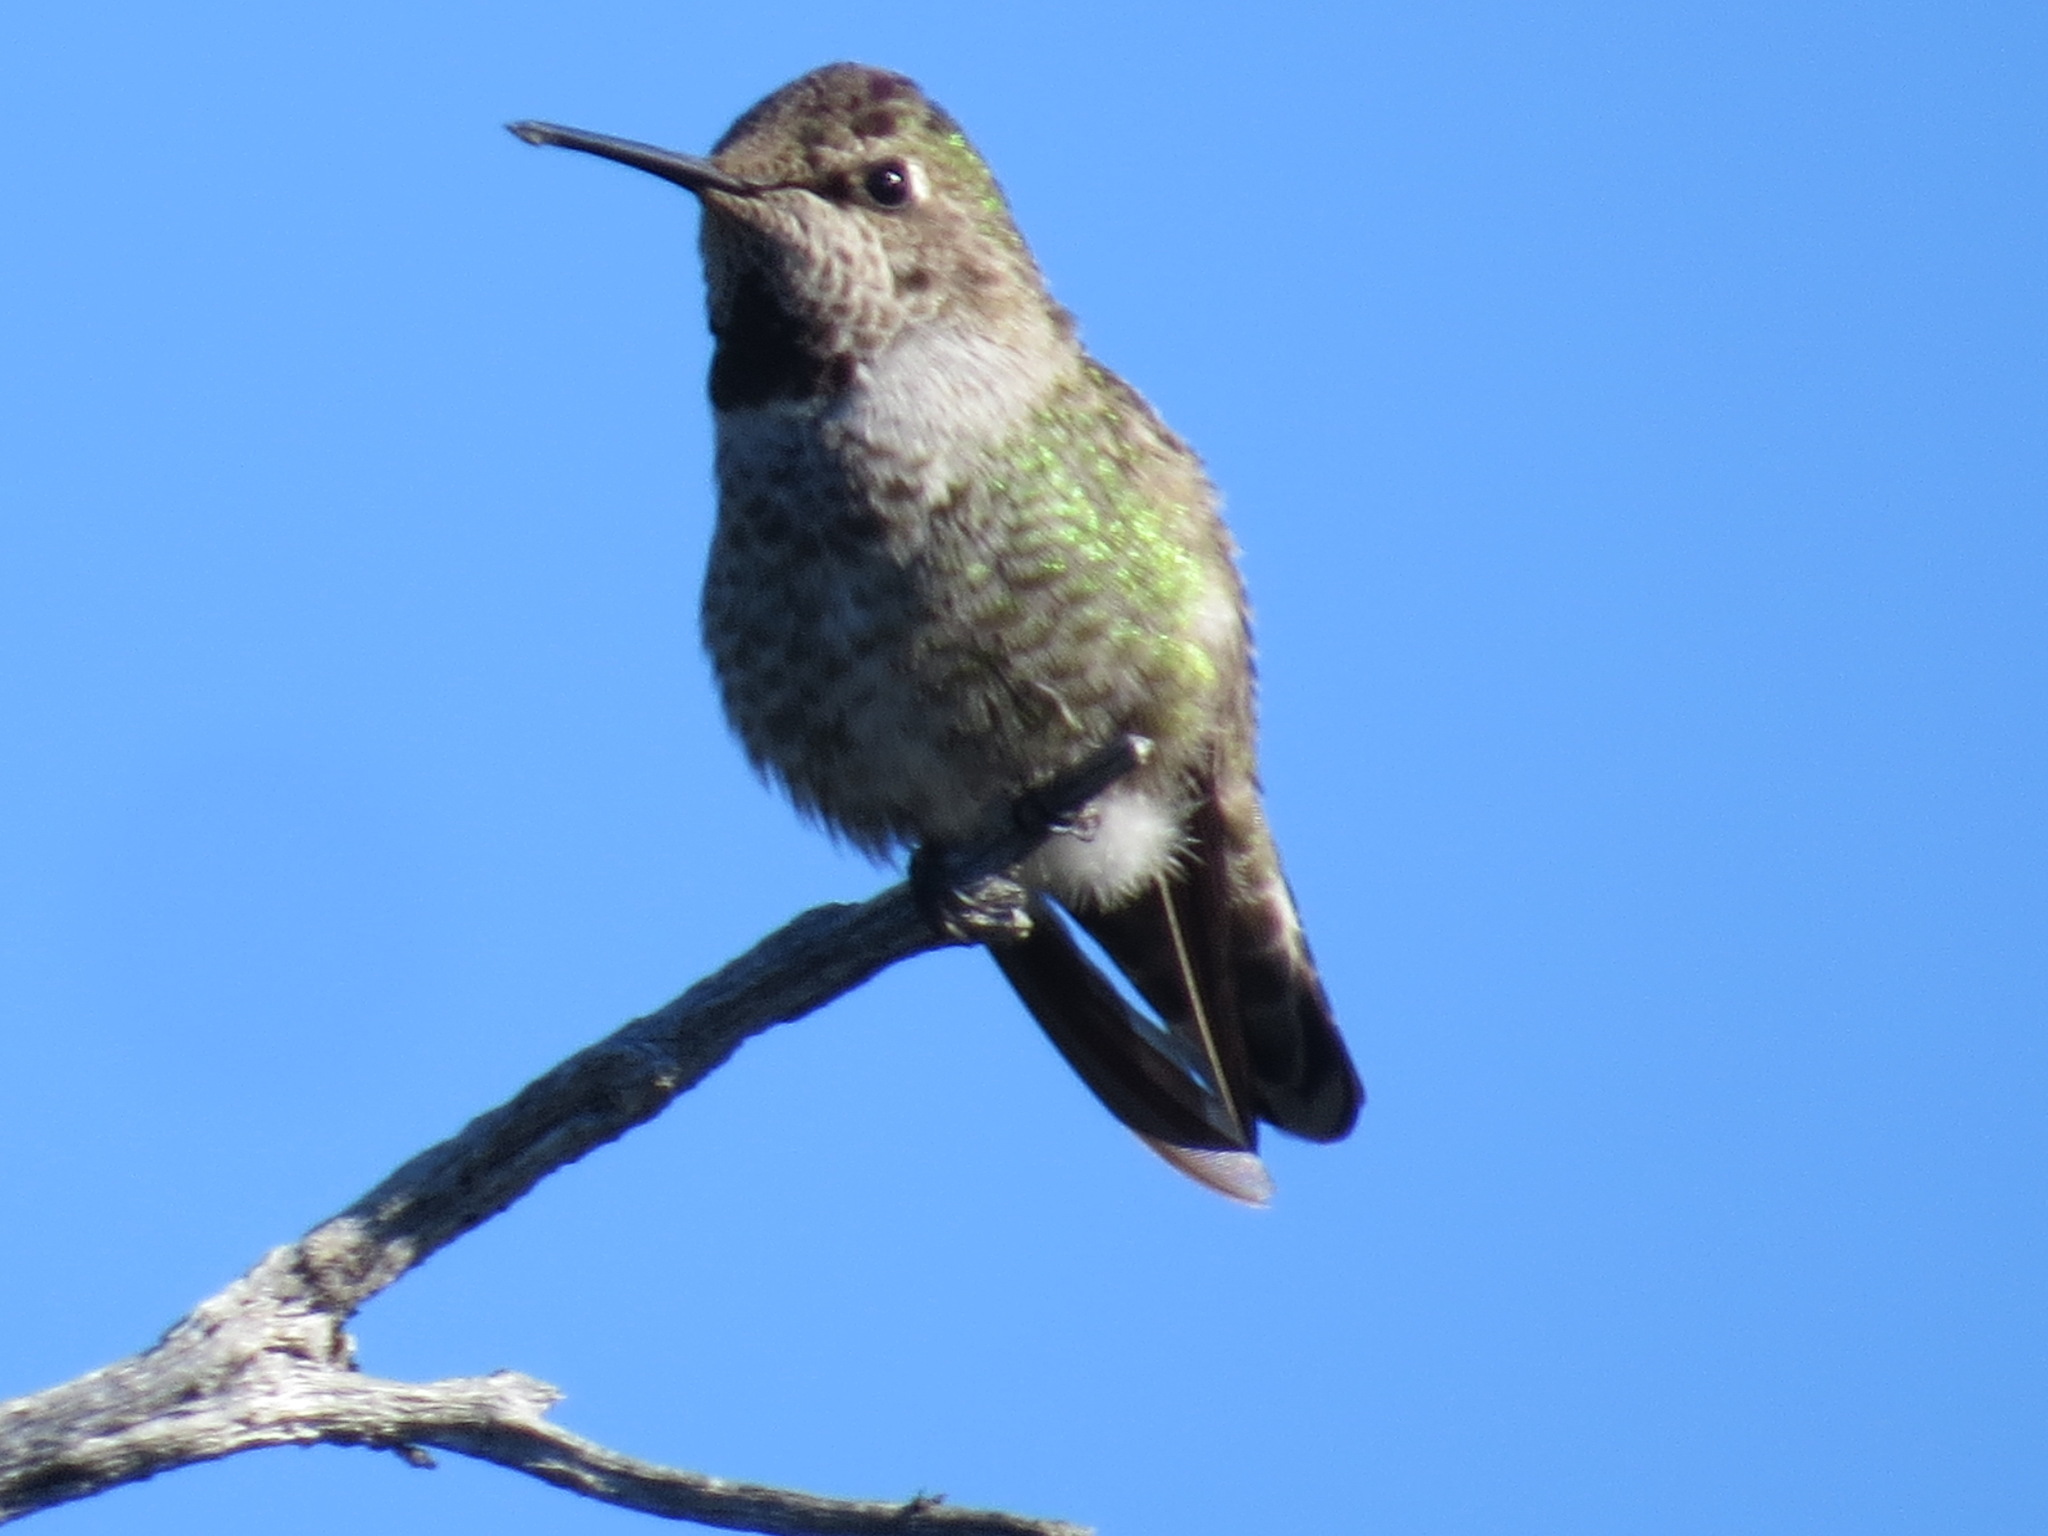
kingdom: Animalia
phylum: Chordata
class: Aves
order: Apodiformes
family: Trochilidae
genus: Calypte
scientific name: Calypte anna
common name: Anna's hummingbird
